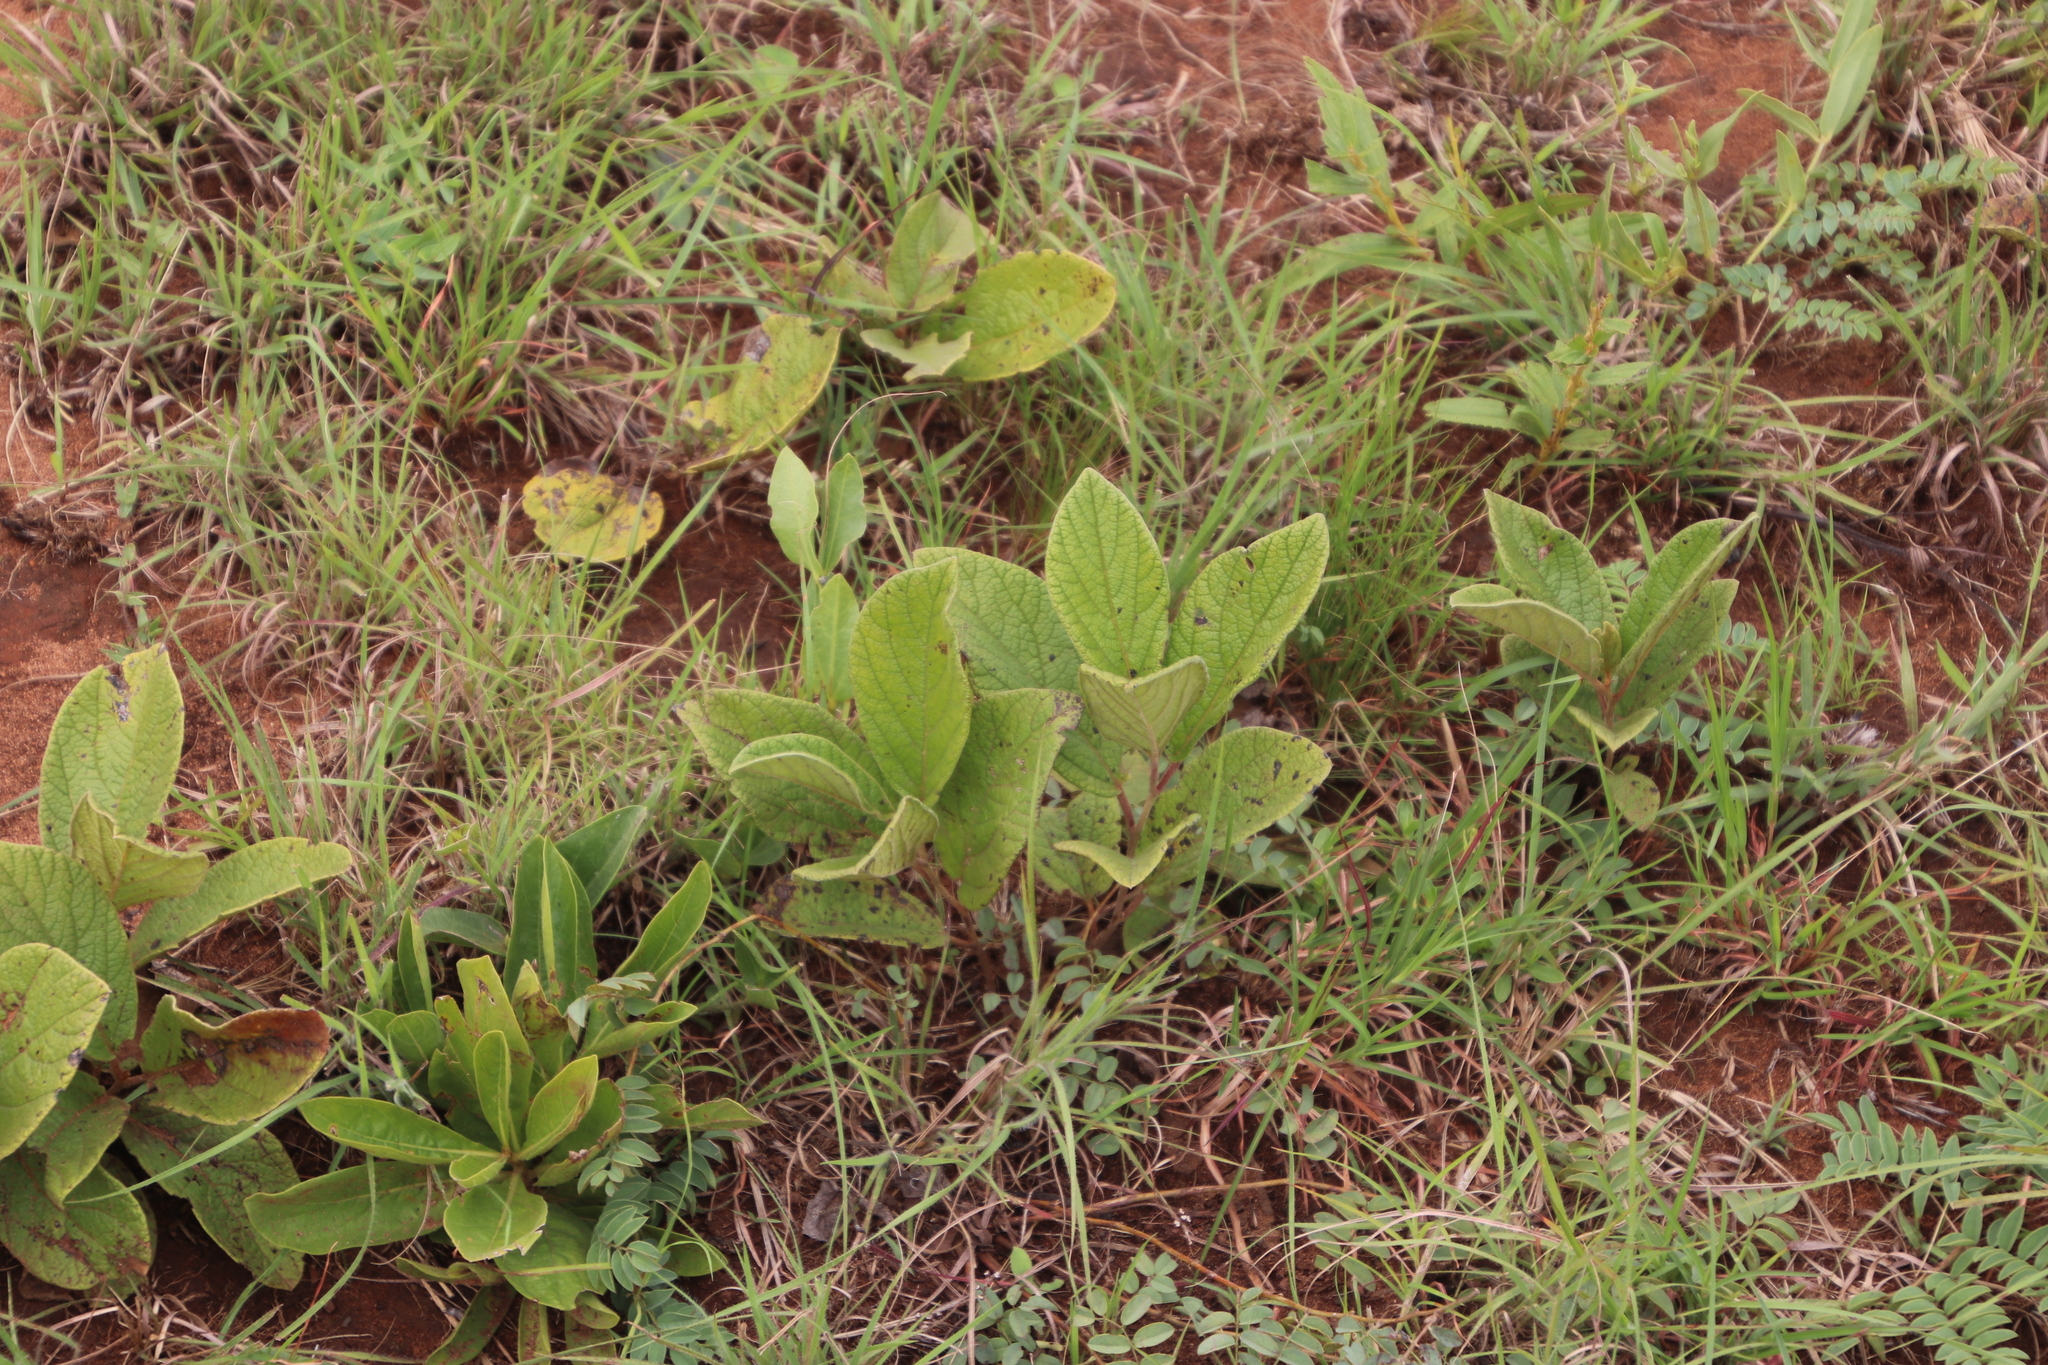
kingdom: Plantae
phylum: Tracheophyta
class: Magnoliopsida
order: Ericales
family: Ebenaceae
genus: Diospyros
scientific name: Diospyros galpinii
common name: Dwarf hairy star-apple
